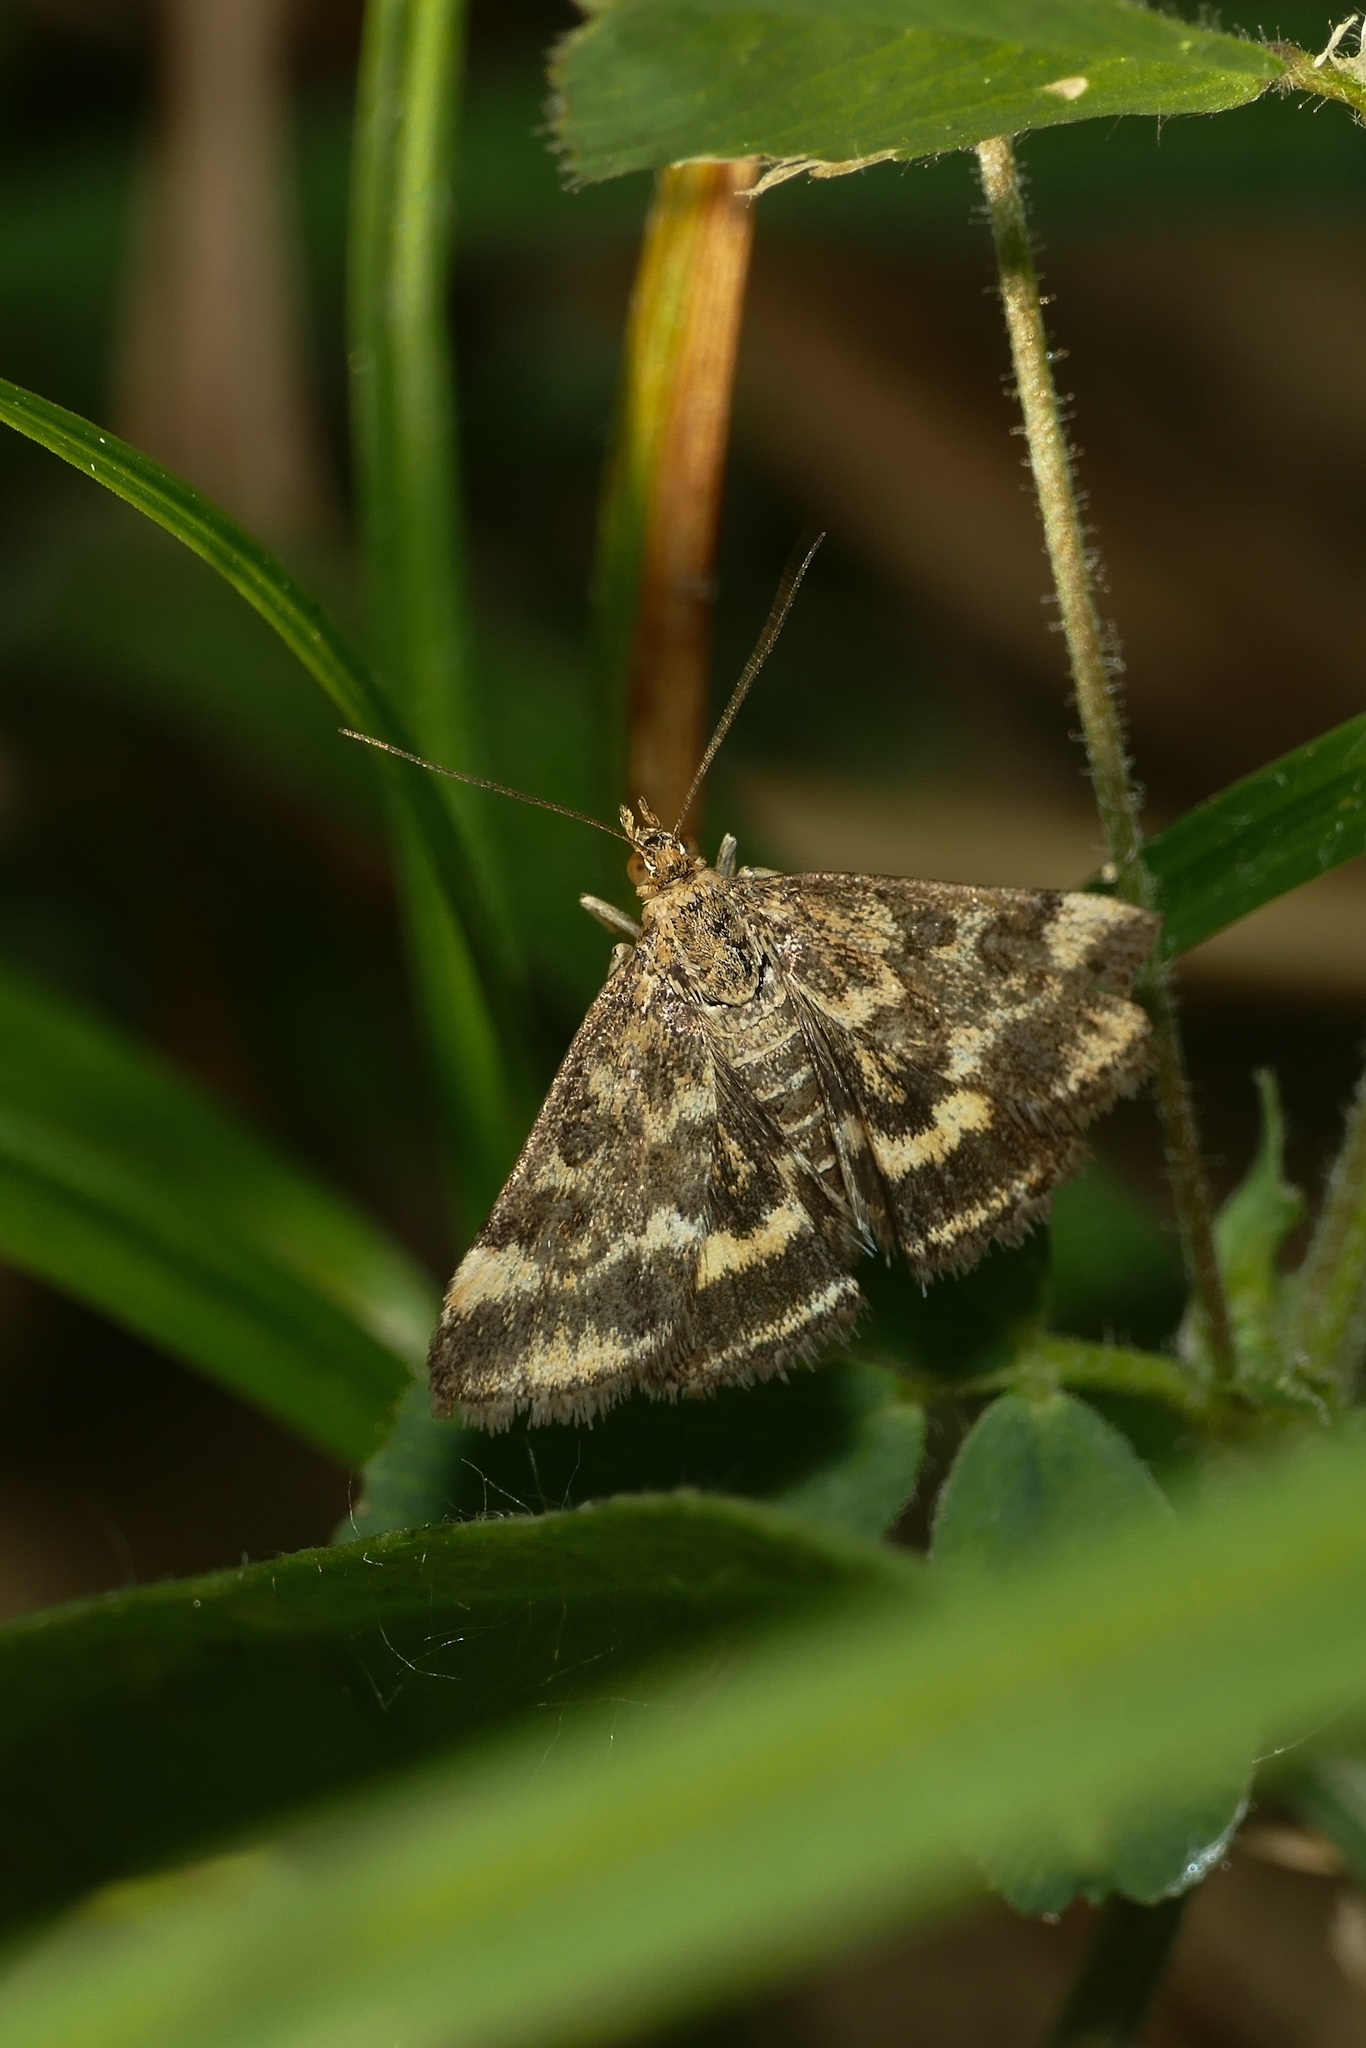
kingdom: Animalia
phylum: Arthropoda
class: Insecta
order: Lepidoptera
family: Crambidae
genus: Pyrausta
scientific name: Pyrausta despicata
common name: Straw-barred pearl
